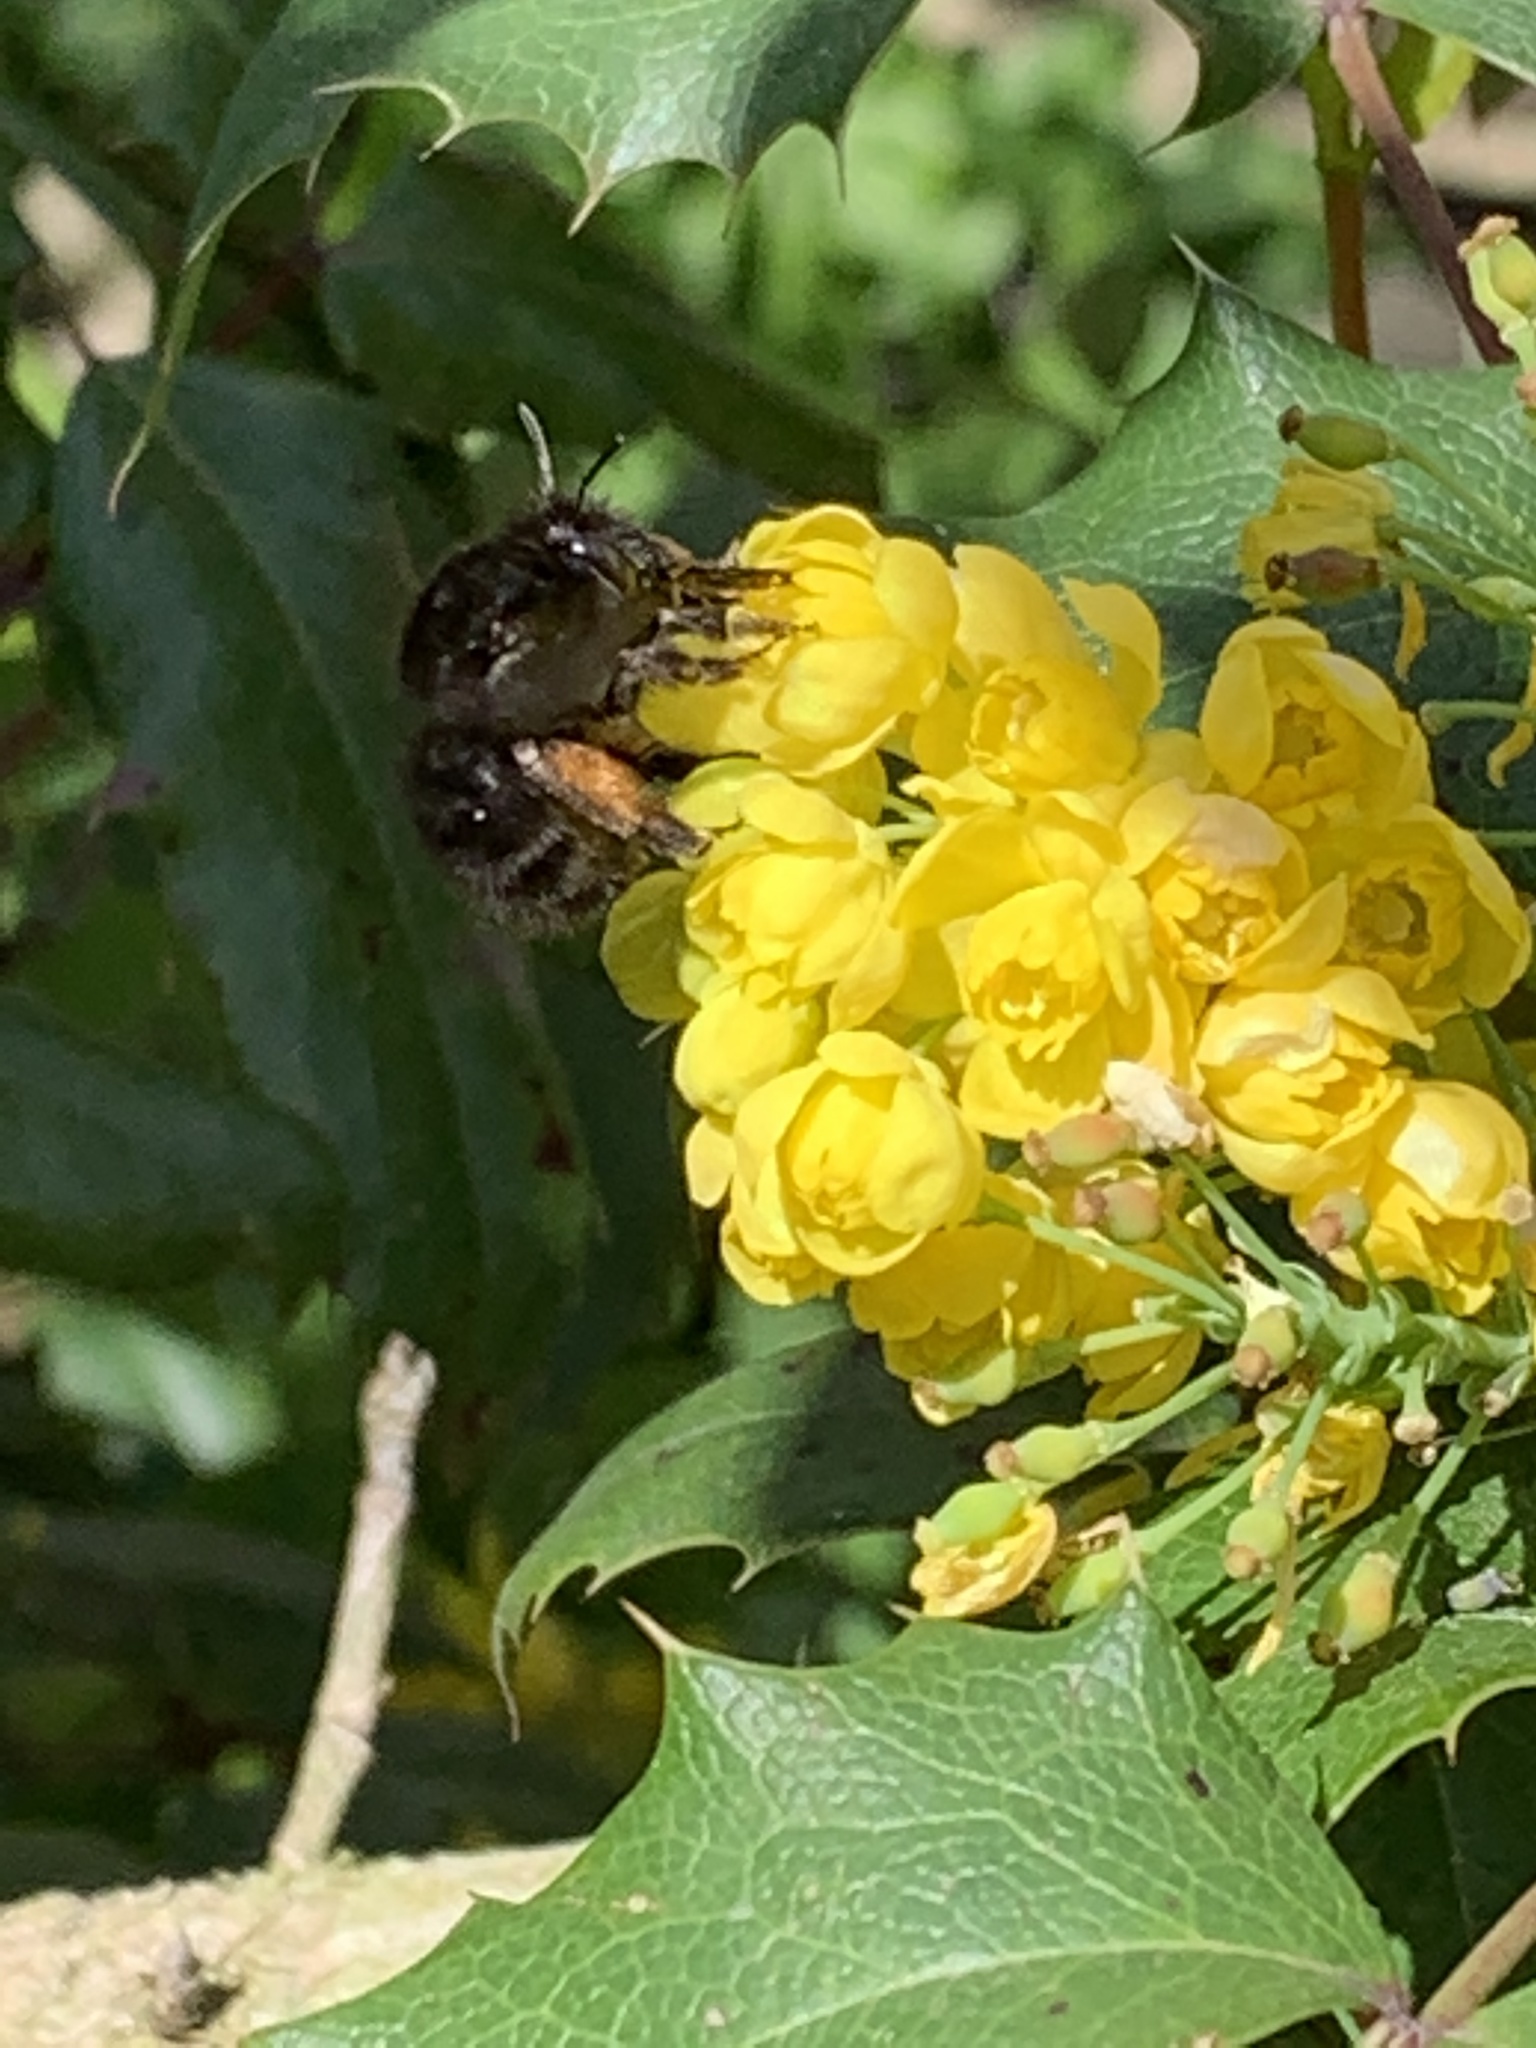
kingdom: Animalia
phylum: Arthropoda
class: Insecta
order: Hymenoptera
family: Apidae
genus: Anthophora
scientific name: Anthophora plumipes
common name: Hairy-footed flower bee
